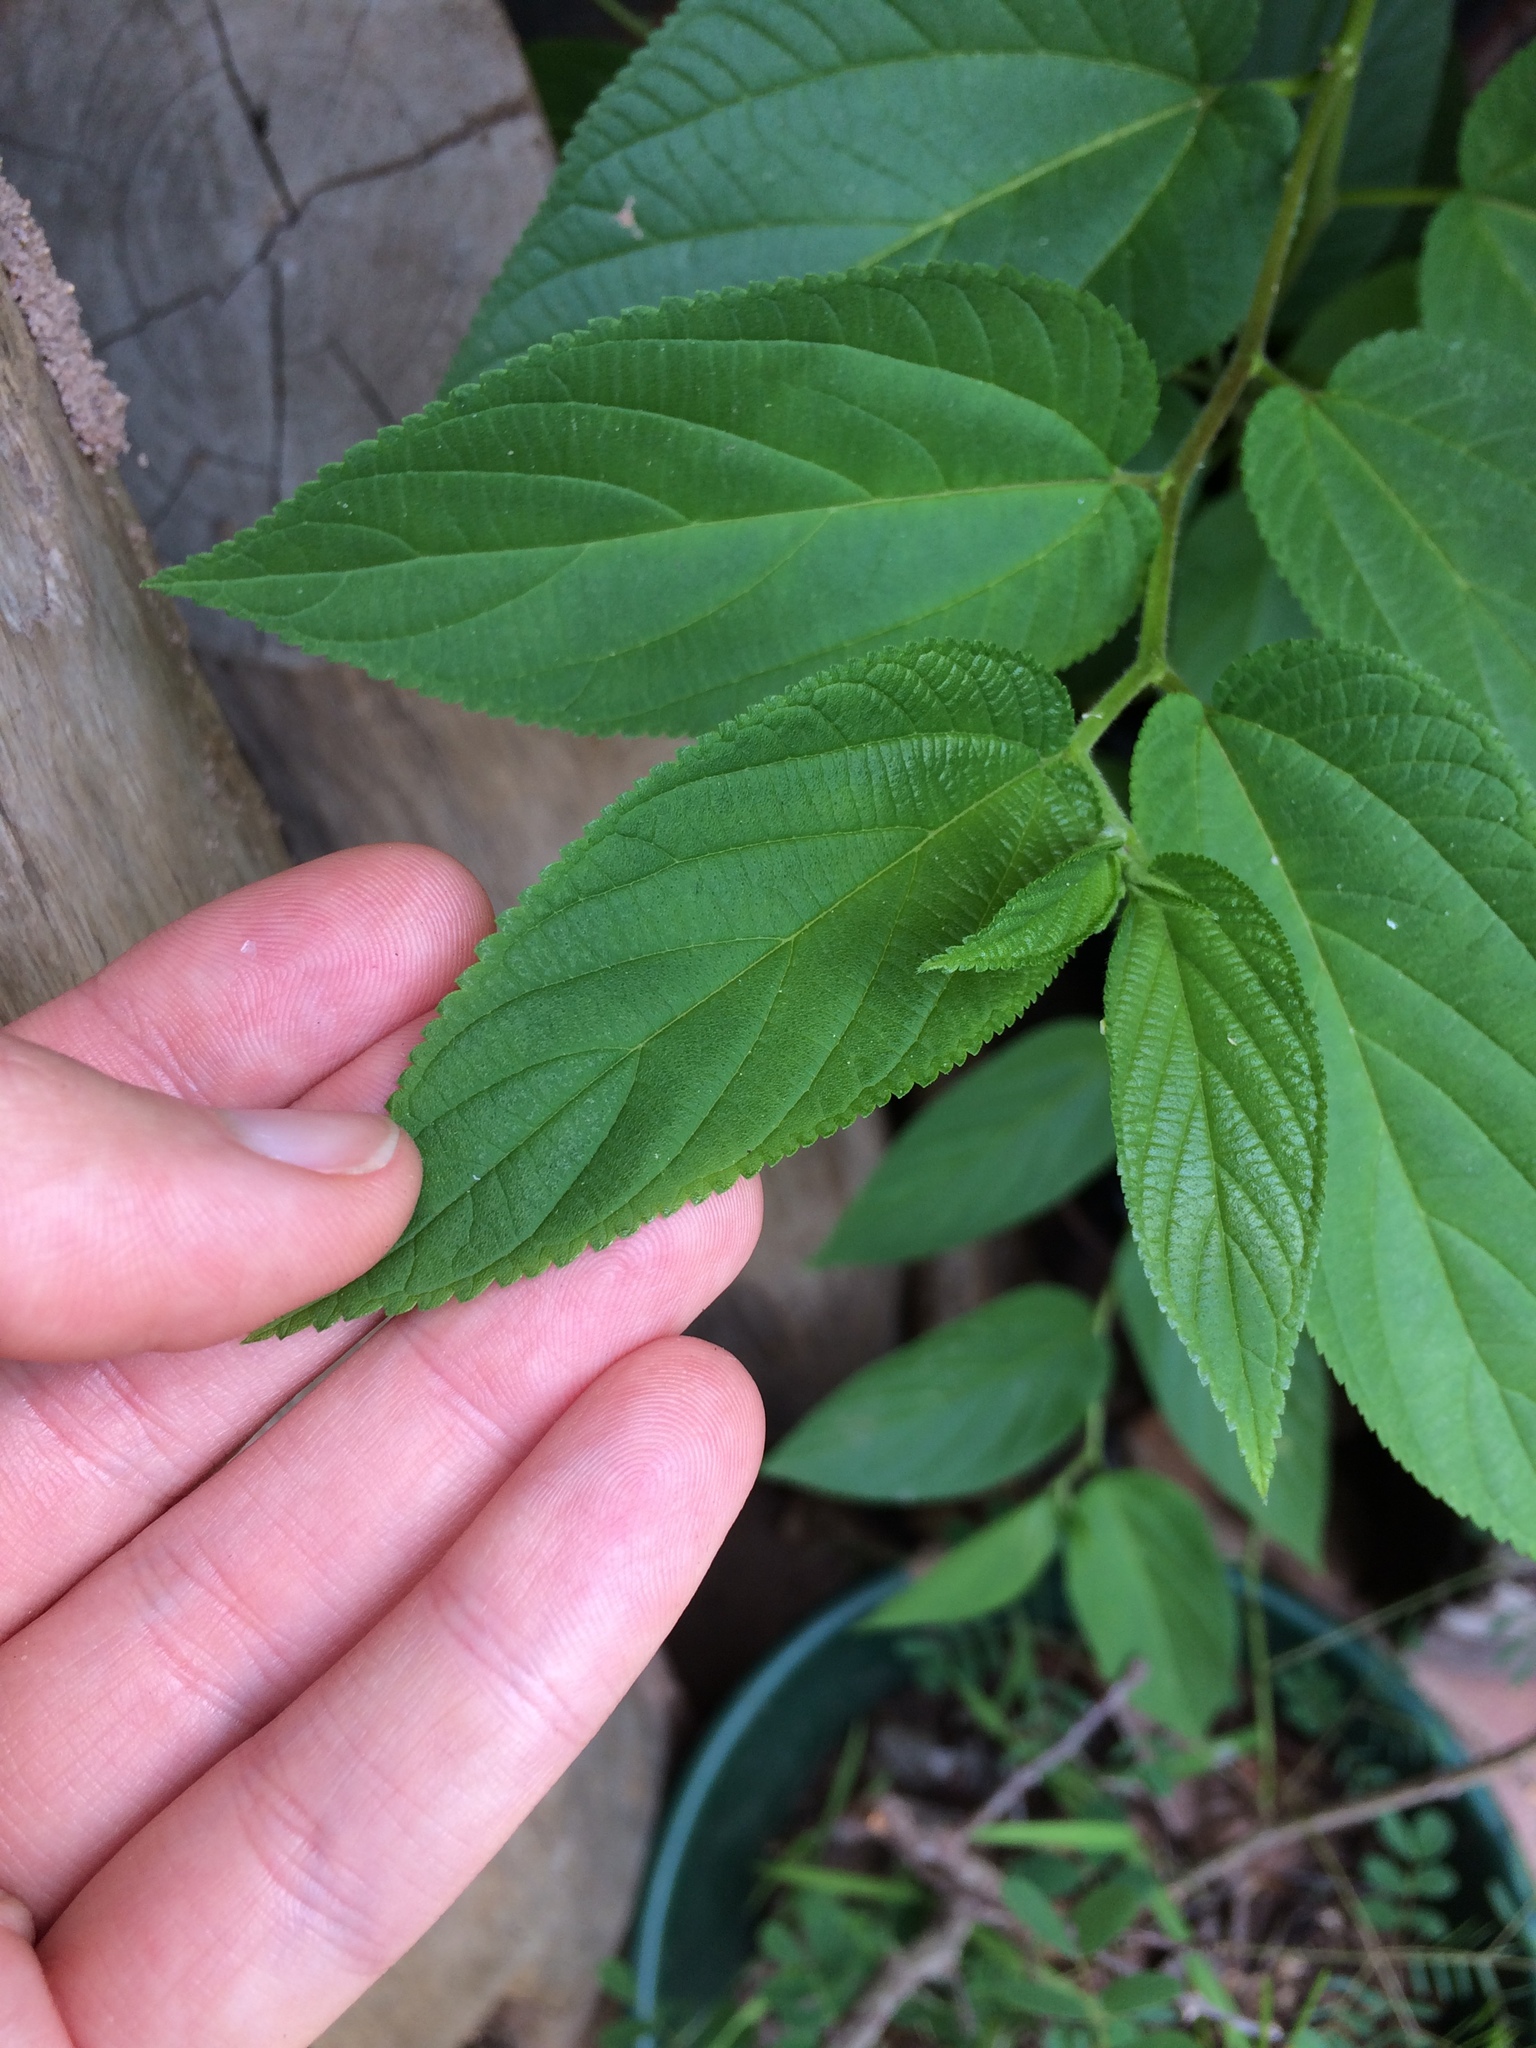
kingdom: Plantae
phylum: Tracheophyta
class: Magnoliopsida
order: Rosales
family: Cannabaceae
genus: Trema
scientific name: Trema orientale
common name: Indian charcoal tree
